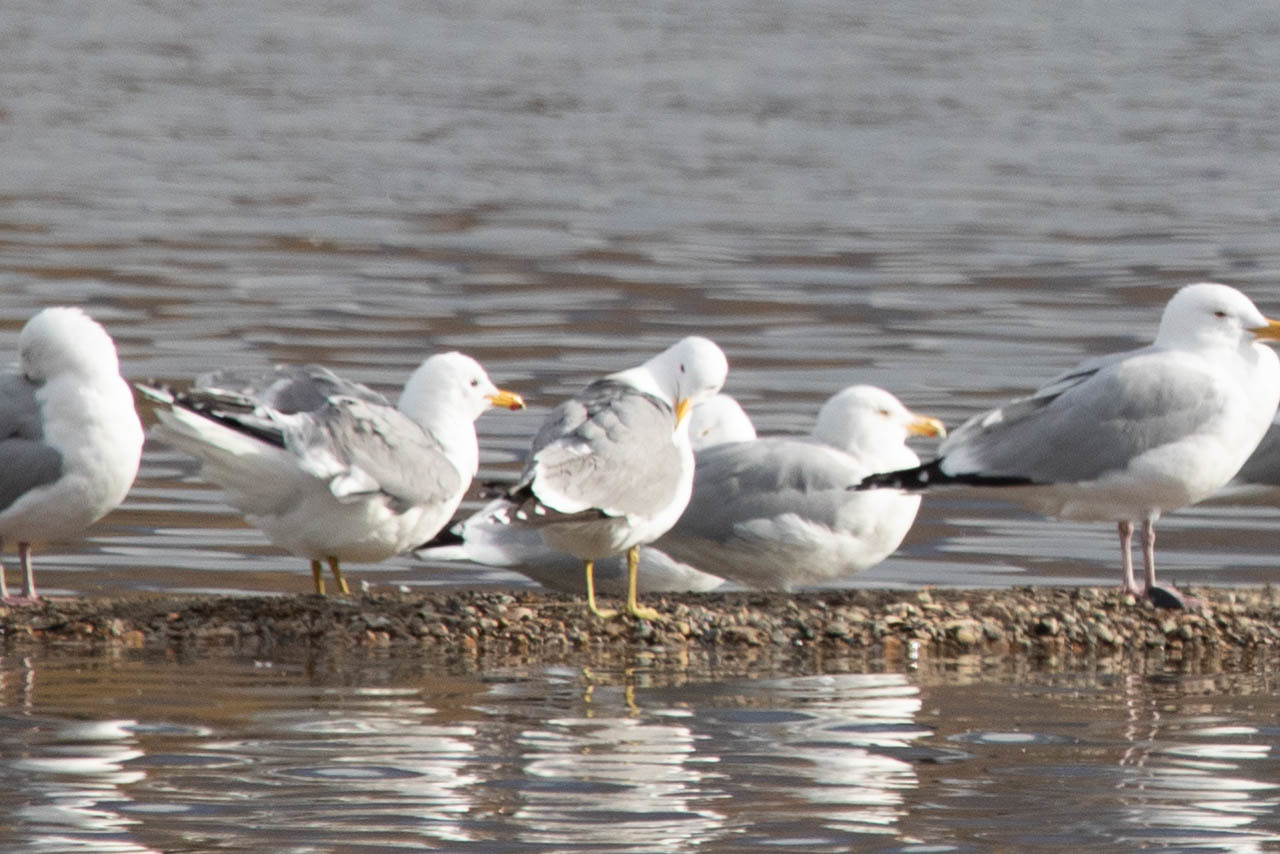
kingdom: Animalia
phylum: Chordata
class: Aves
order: Charadriiformes
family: Laridae
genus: Larus
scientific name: Larus californicus
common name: California gull
